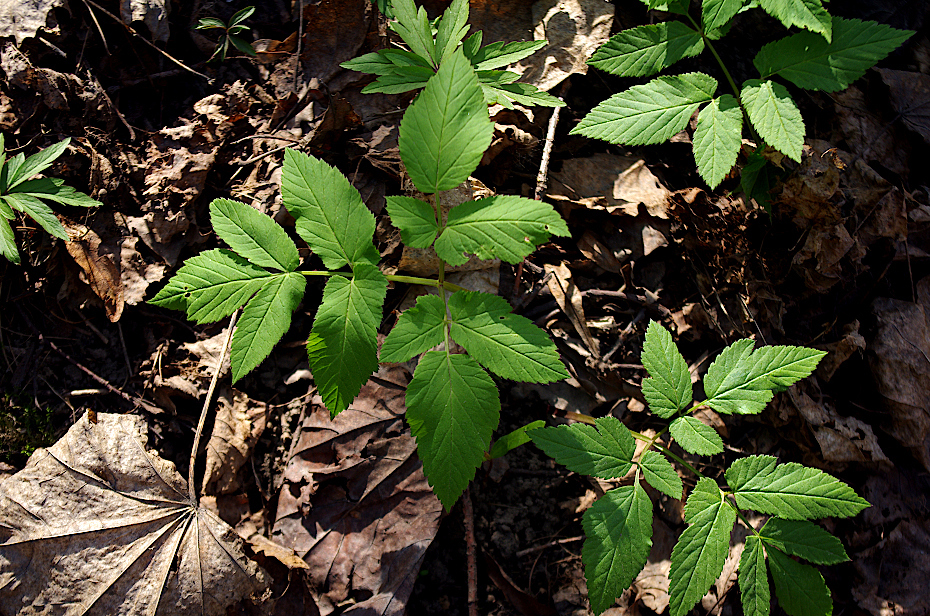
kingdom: Plantae
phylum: Tracheophyta
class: Magnoliopsida
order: Apiales
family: Apiaceae
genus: Aegopodium
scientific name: Aegopodium podagraria
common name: Ground-elder
